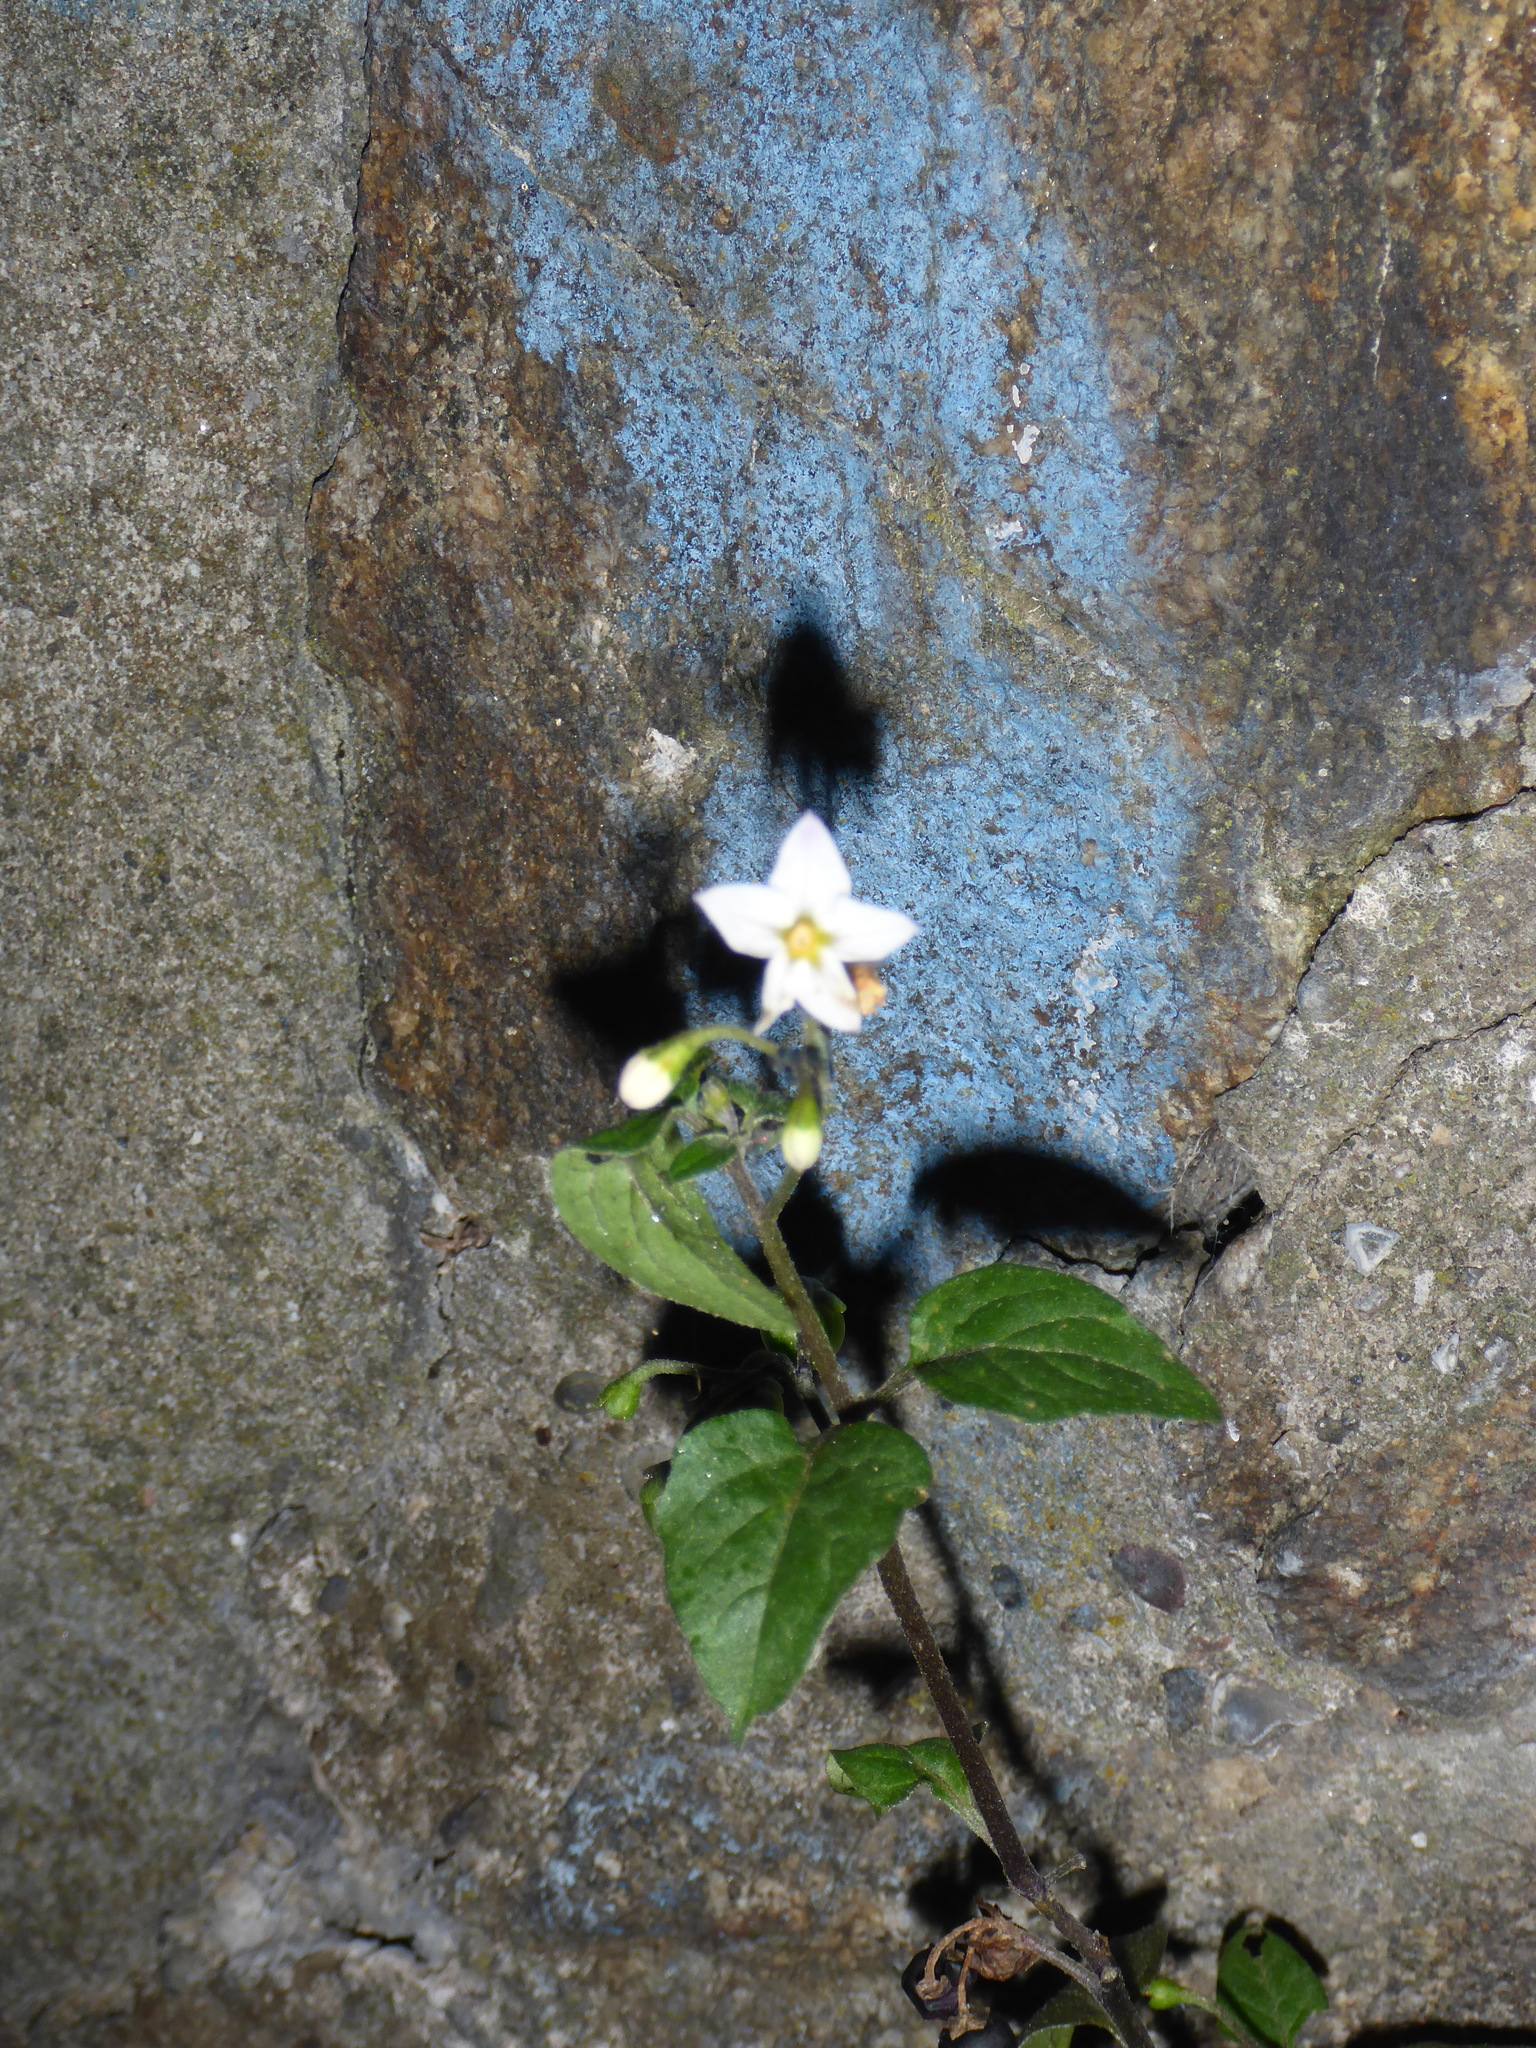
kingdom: Plantae
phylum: Tracheophyta
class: Magnoliopsida
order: Solanales
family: Solanaceae
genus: Solanum
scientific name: Solanum nigrum
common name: Black nightshade
